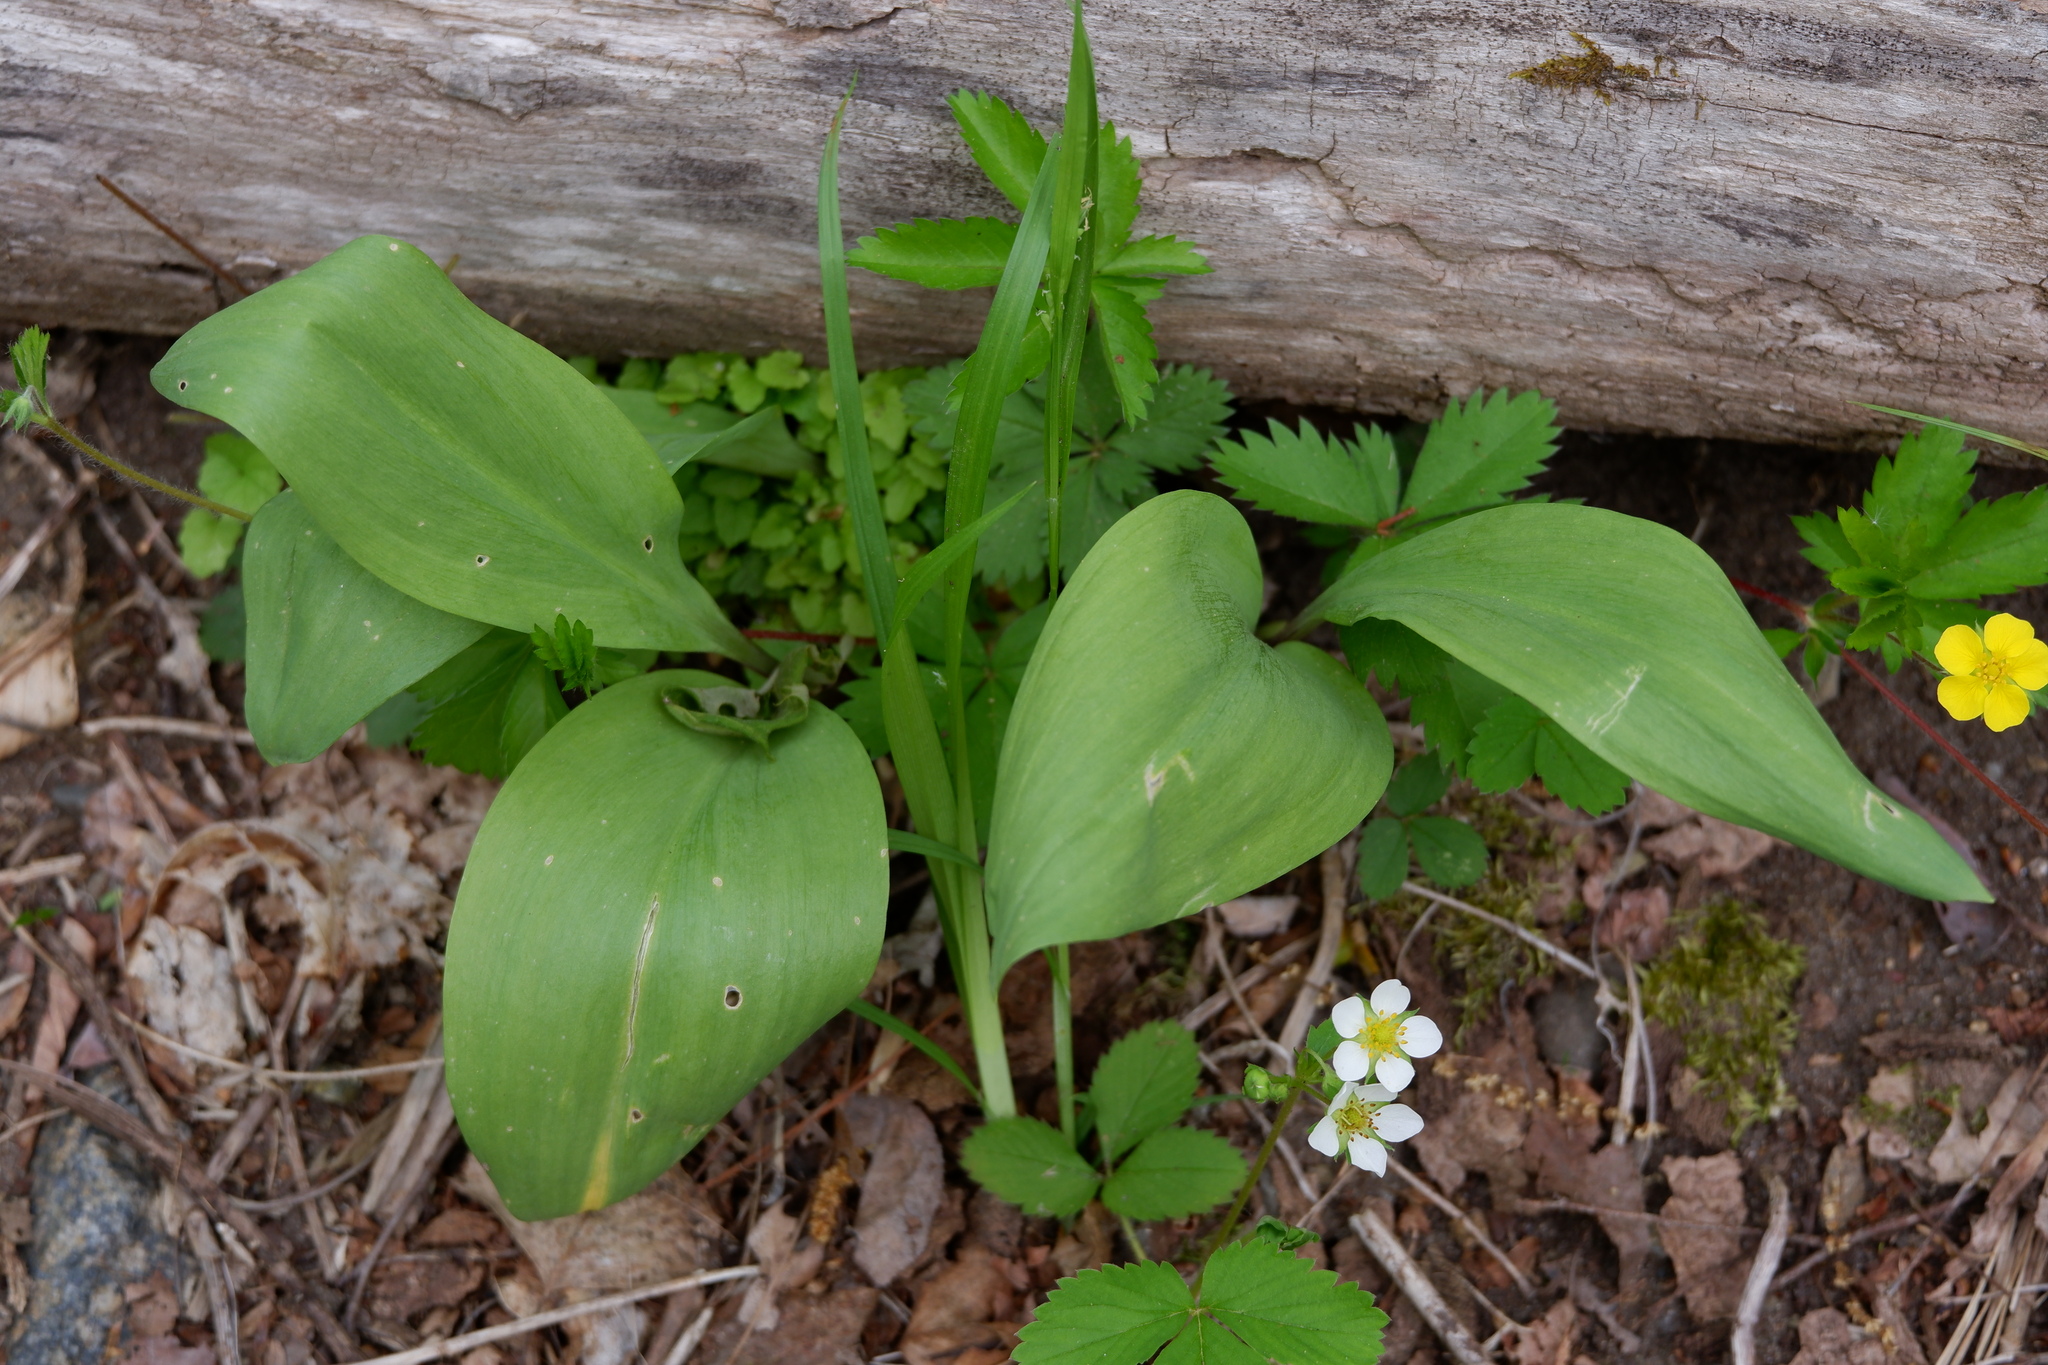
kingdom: Plantae
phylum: Tracheophyta
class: Liliopsida
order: Asparagales
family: Amaryllidaceae
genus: Allium
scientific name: Allium tricoccum
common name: Ramp
